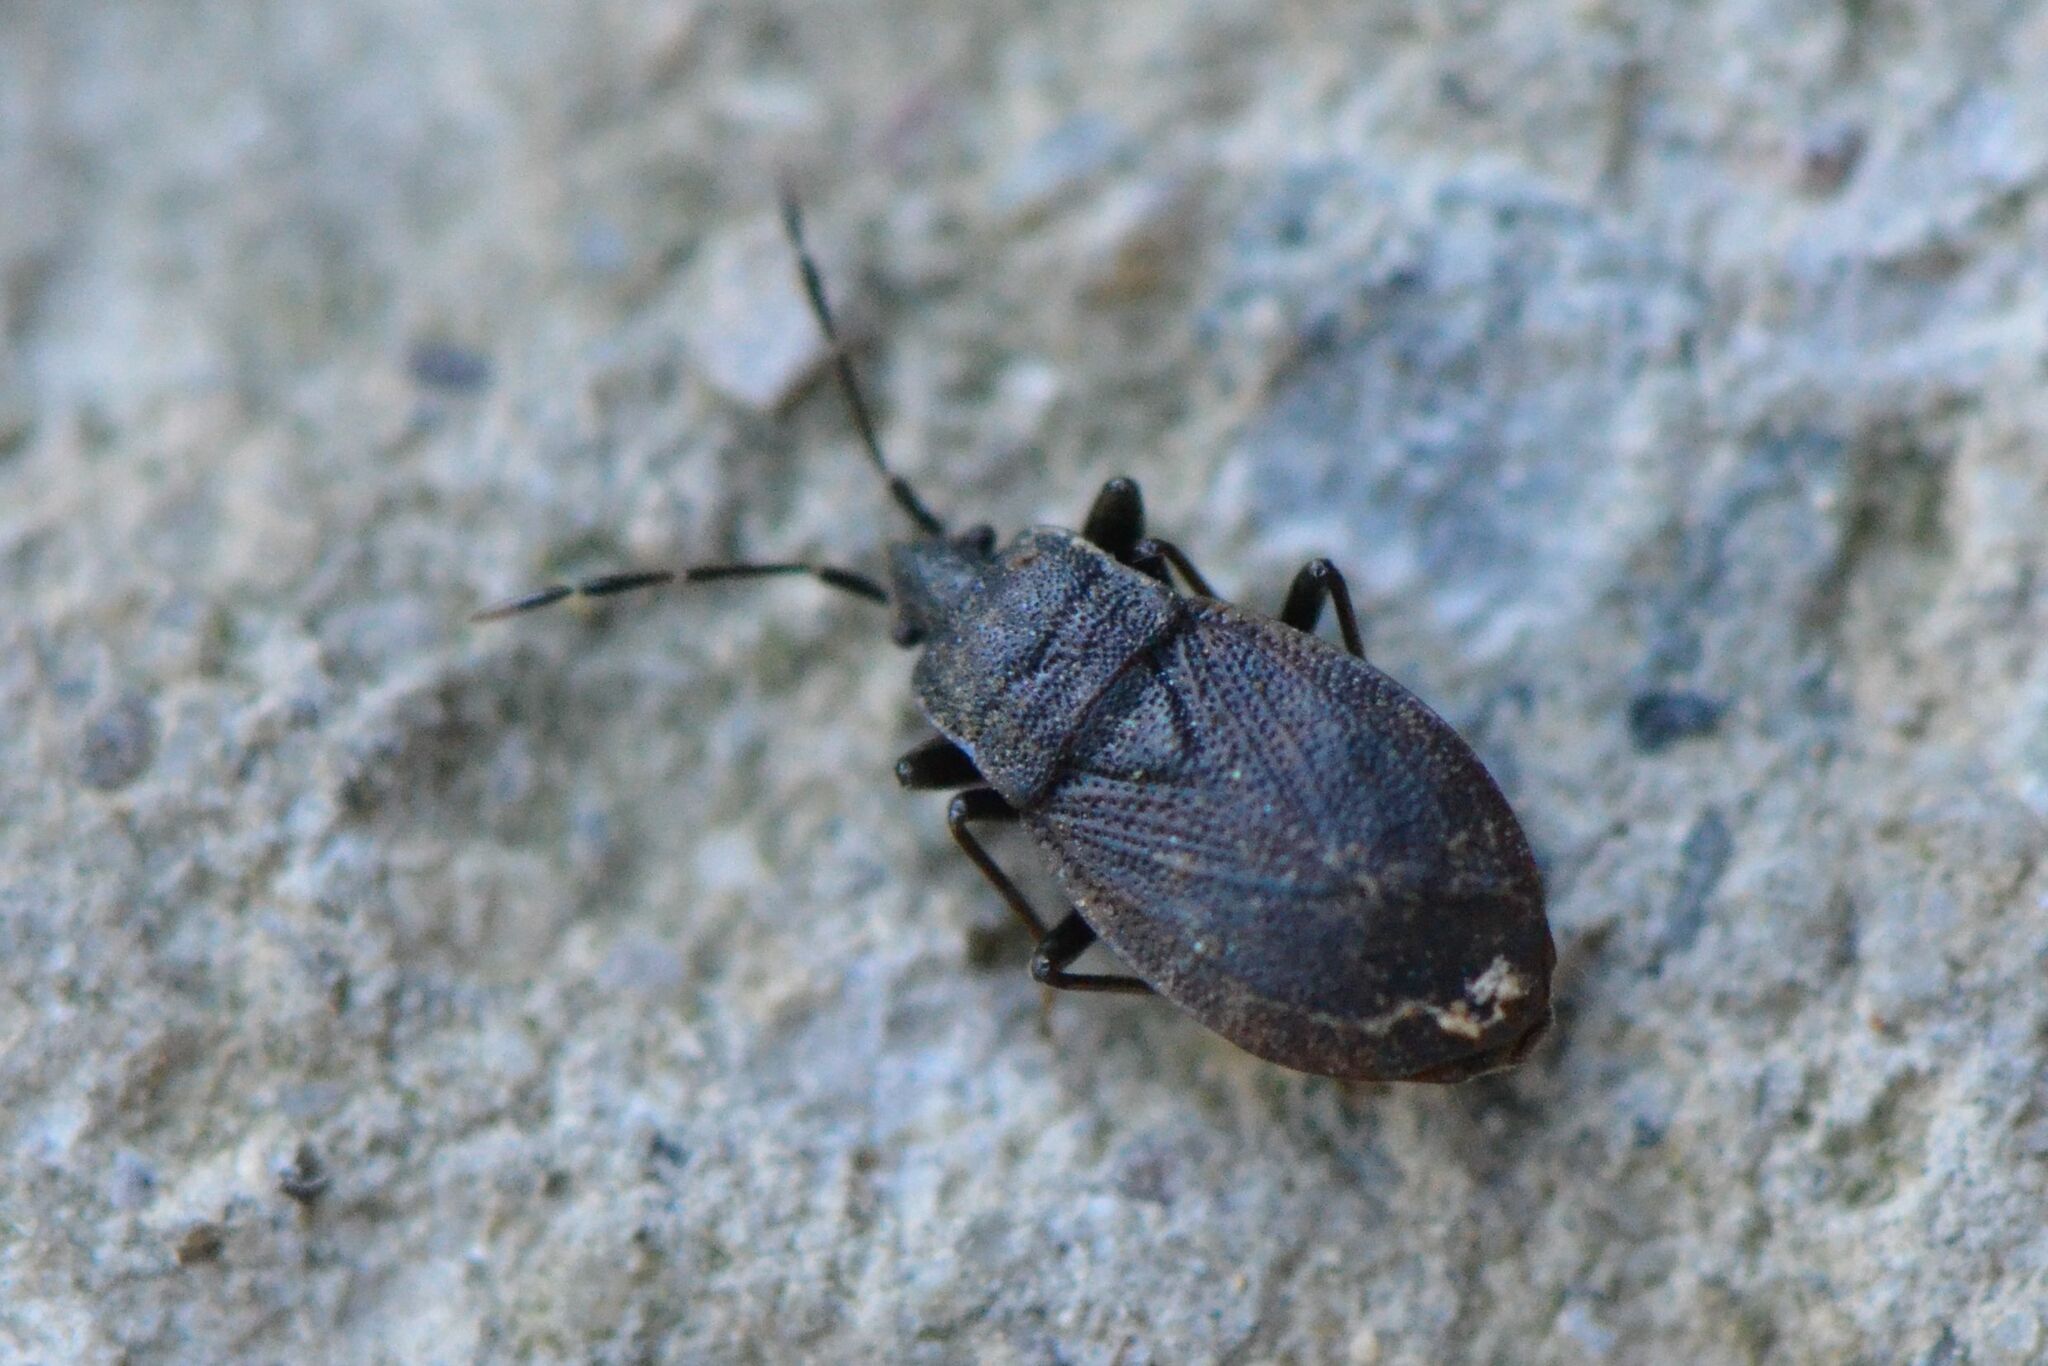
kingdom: Animalia
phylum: Arthropoda
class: Insecta
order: Hemiptera
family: Rhyparochromidae
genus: Drymus
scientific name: Drymus brunneus
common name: Seed bug
